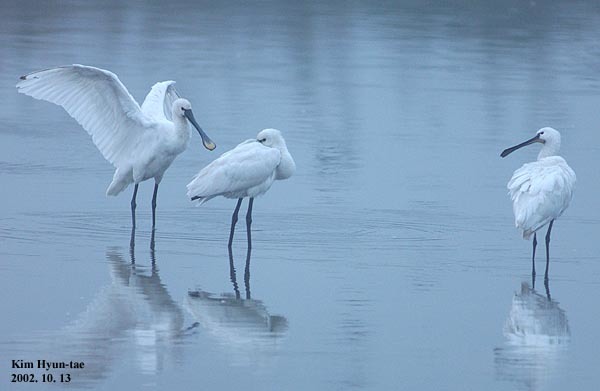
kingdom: Animalia
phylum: Chordata
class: Aves
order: Pelecaniformes
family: Threskiornithidae
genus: Platalea
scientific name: Platalea leucorodia
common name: Eurasian spoonbill
